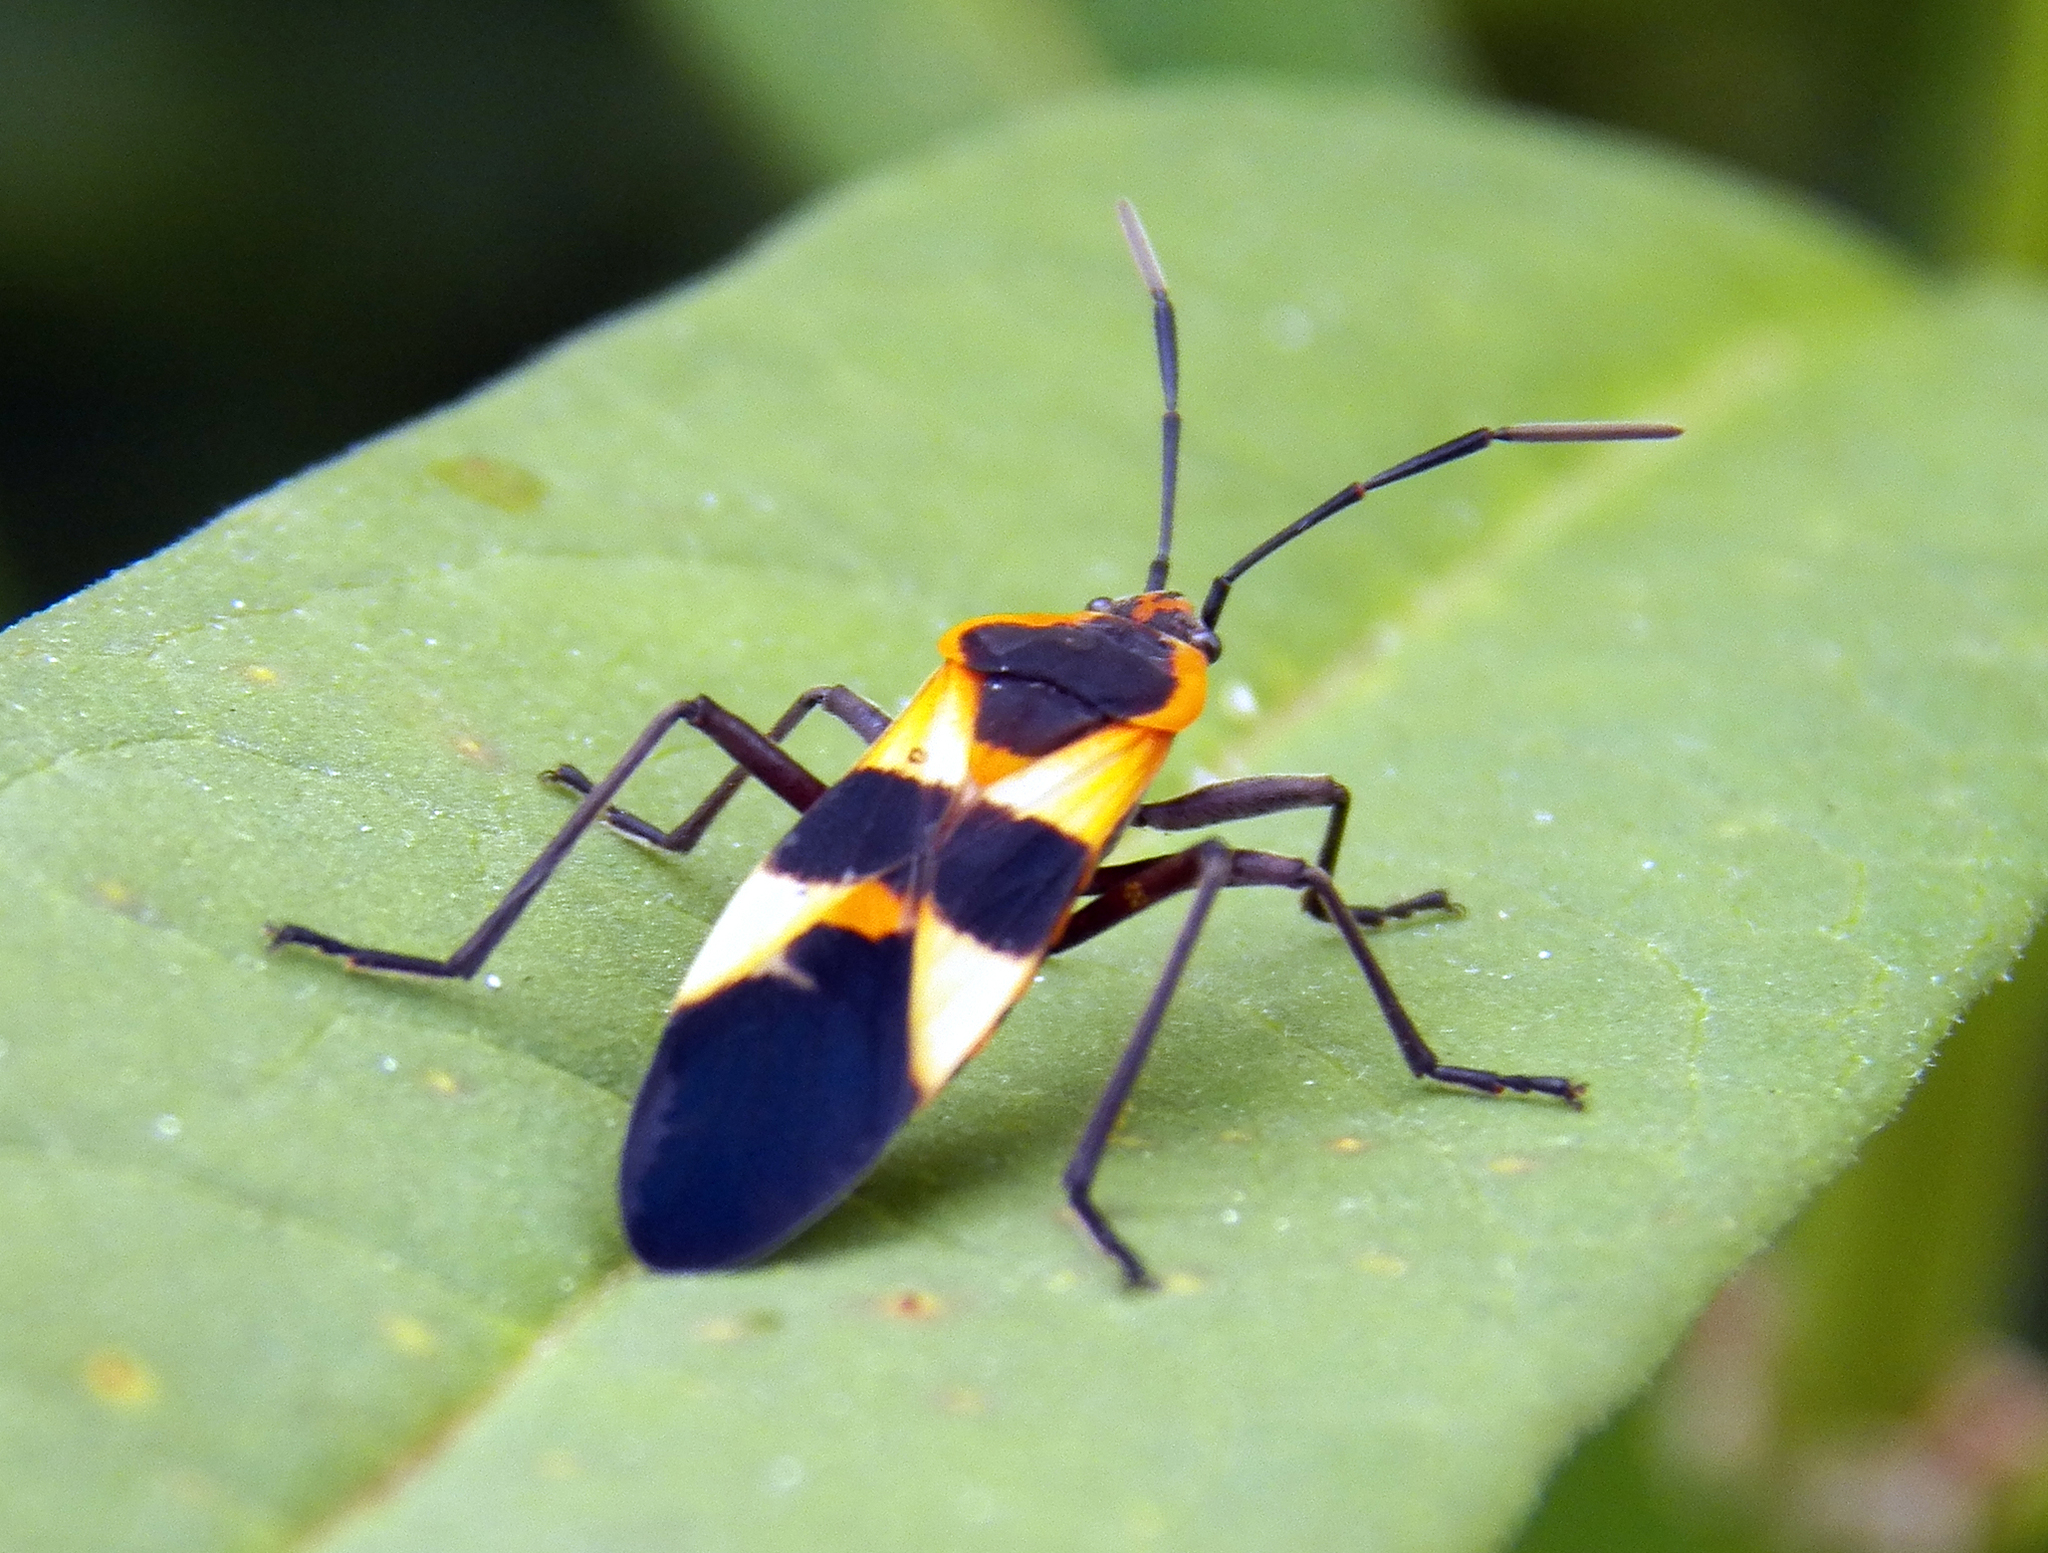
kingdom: Animalia
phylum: Arthropoda
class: Insecta
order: Hemiptera
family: Lygaeidae
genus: Oncopeltus
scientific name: Oncopeltus fasciatus
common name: Large milkweed bug
